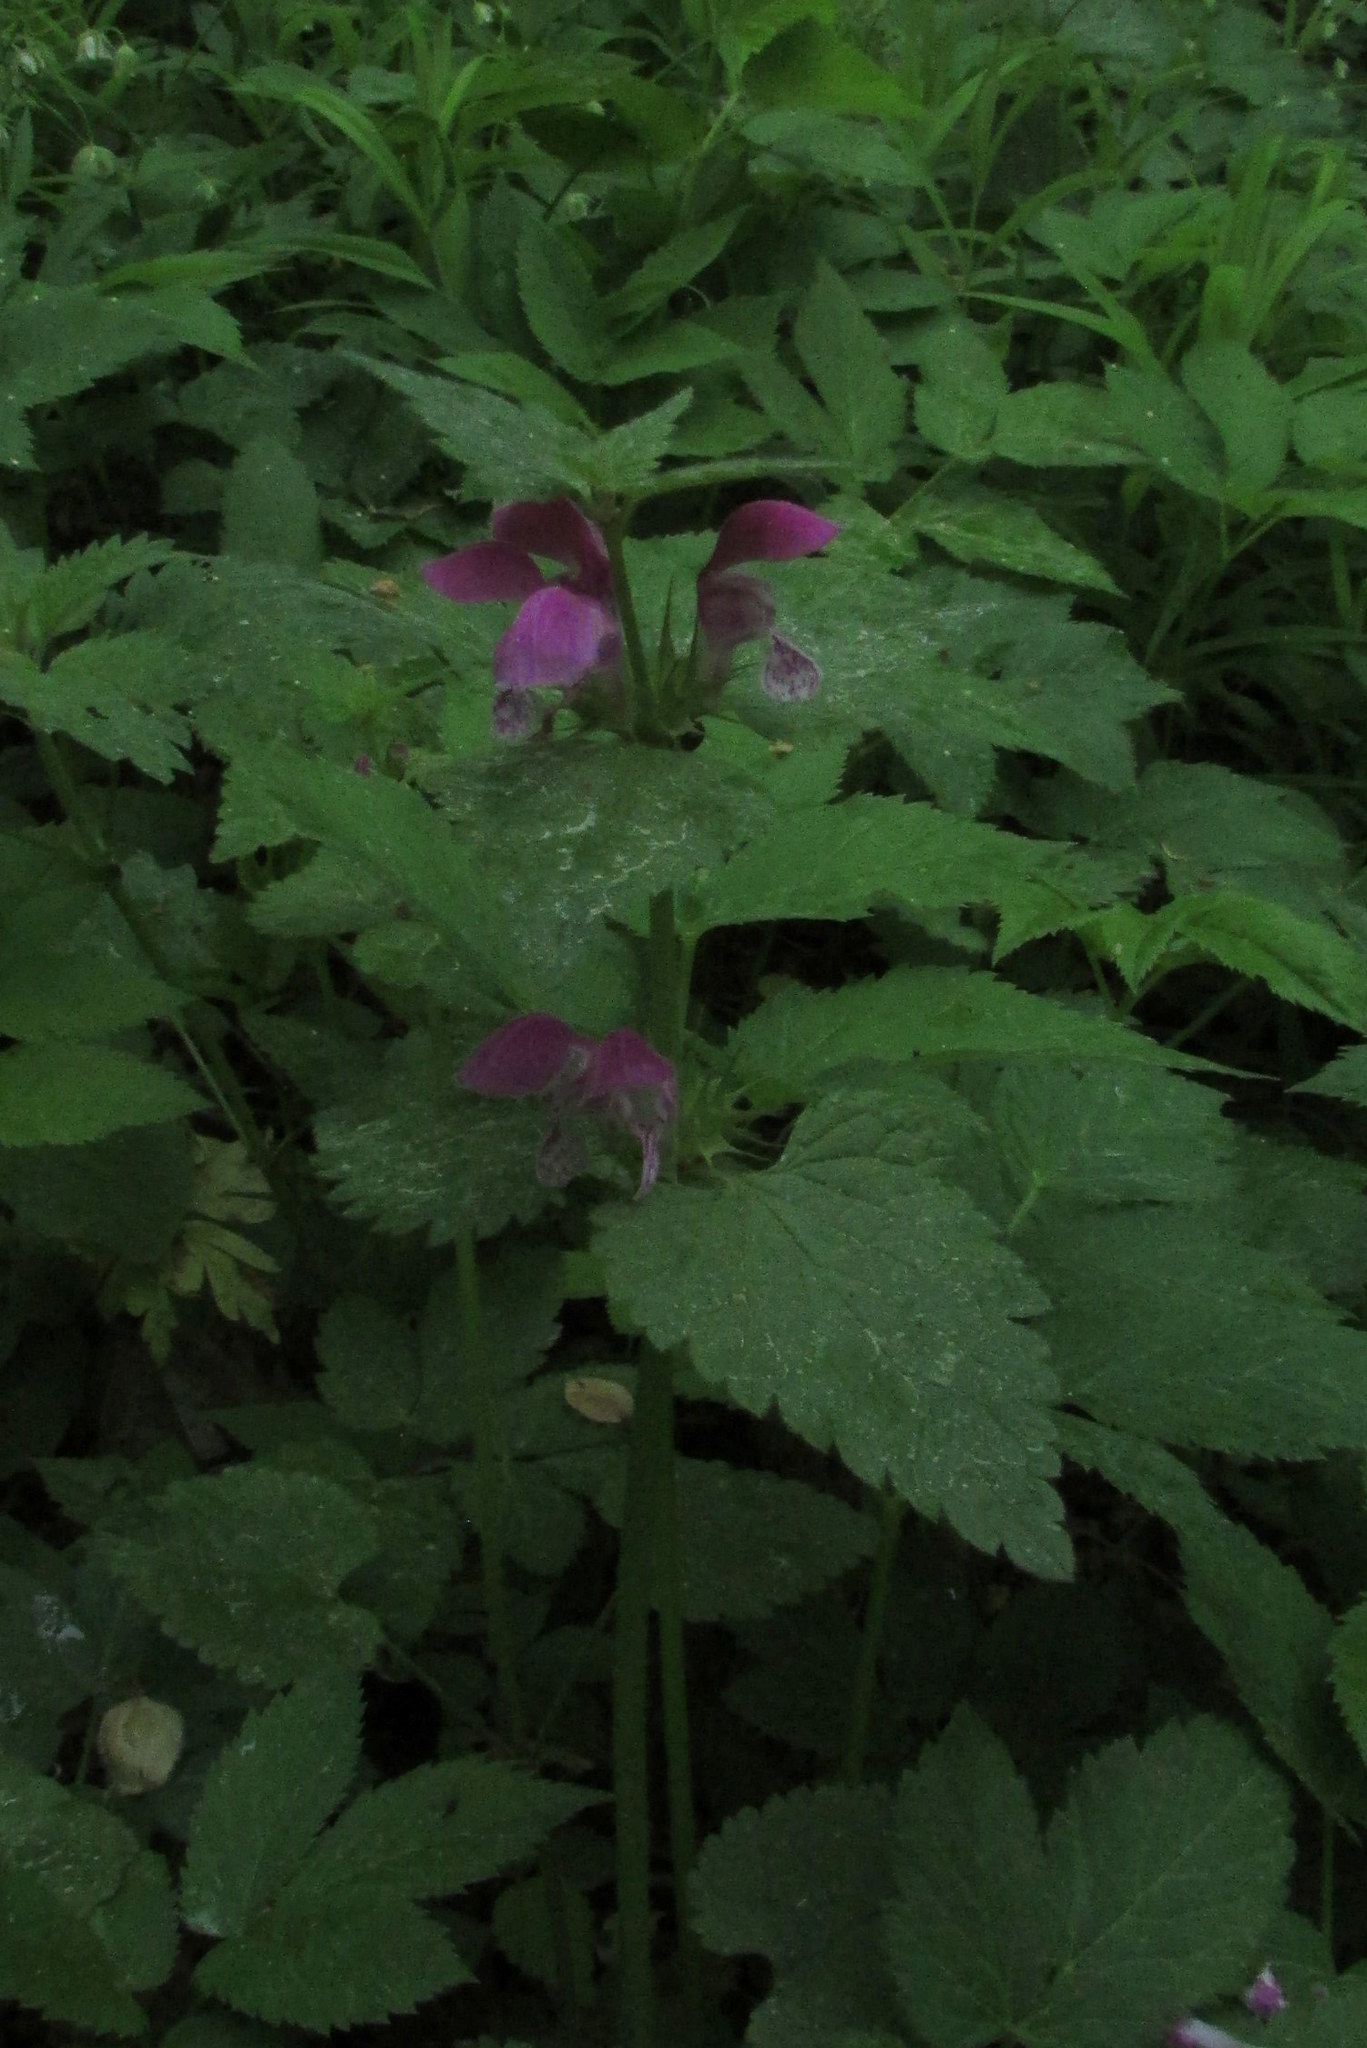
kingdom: Plantae
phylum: Tracheophyta
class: Magnoliopsida
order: Lamiales
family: Lamiaceae
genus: Lamium
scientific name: Lamium maculatum
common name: Spotted dead-nettle
